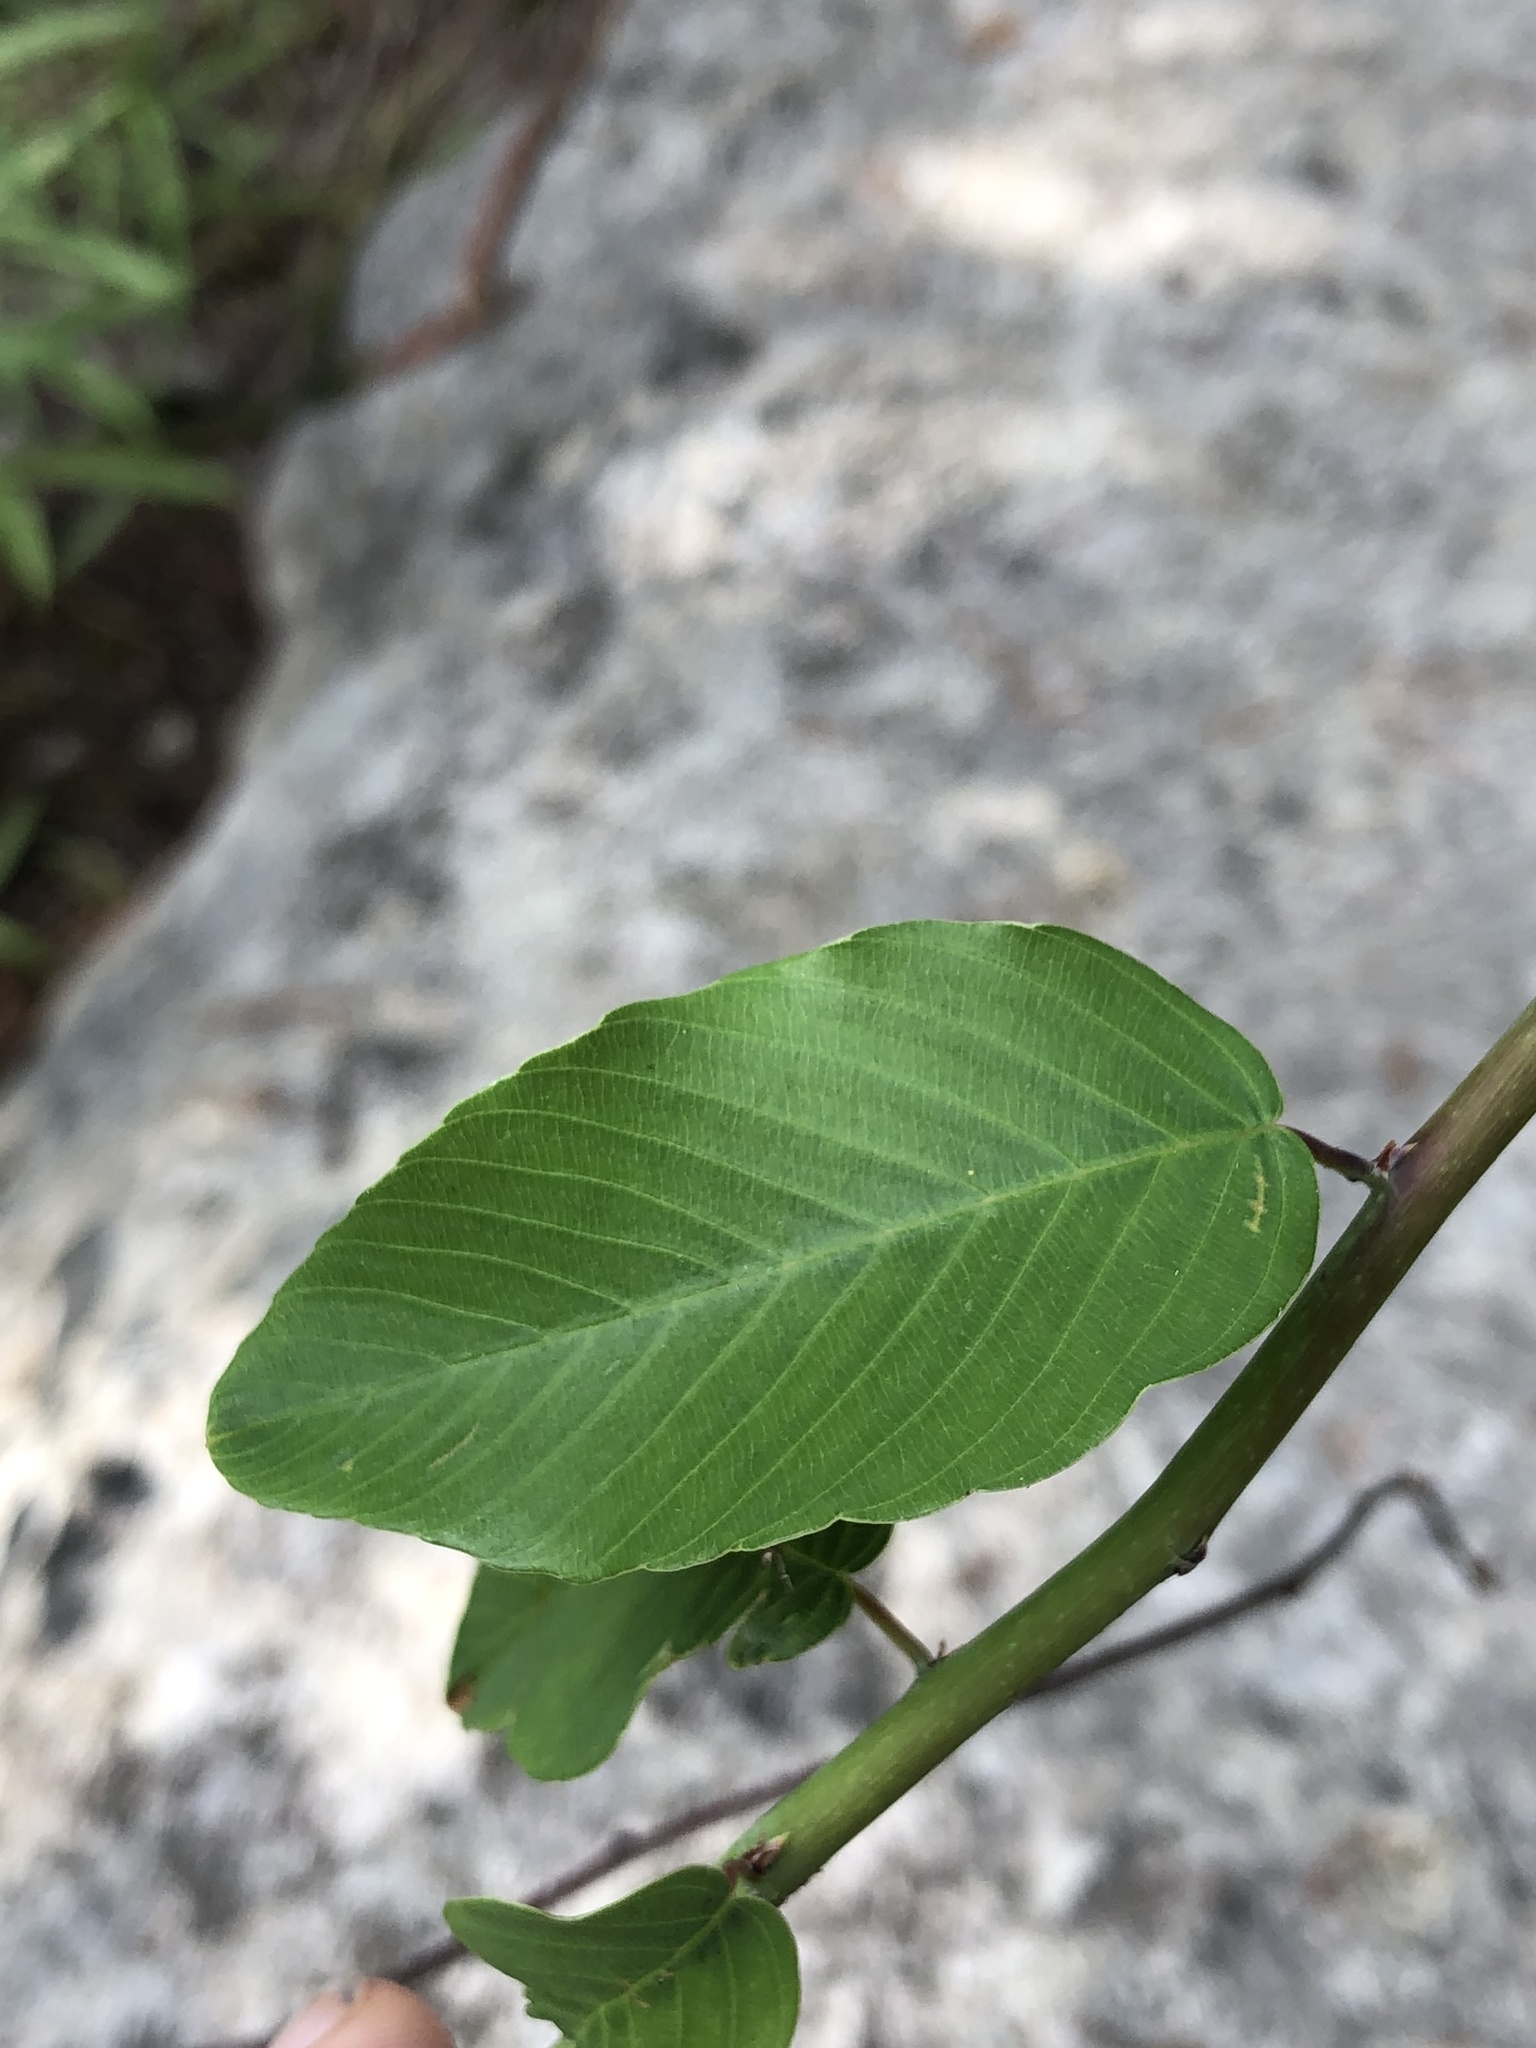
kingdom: Plantae
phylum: Tracheophyta
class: Magnoliopsida
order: Rosales
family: Rhamnaceae
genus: Berchemia
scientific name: Berchemia scandens
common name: Supplejack
